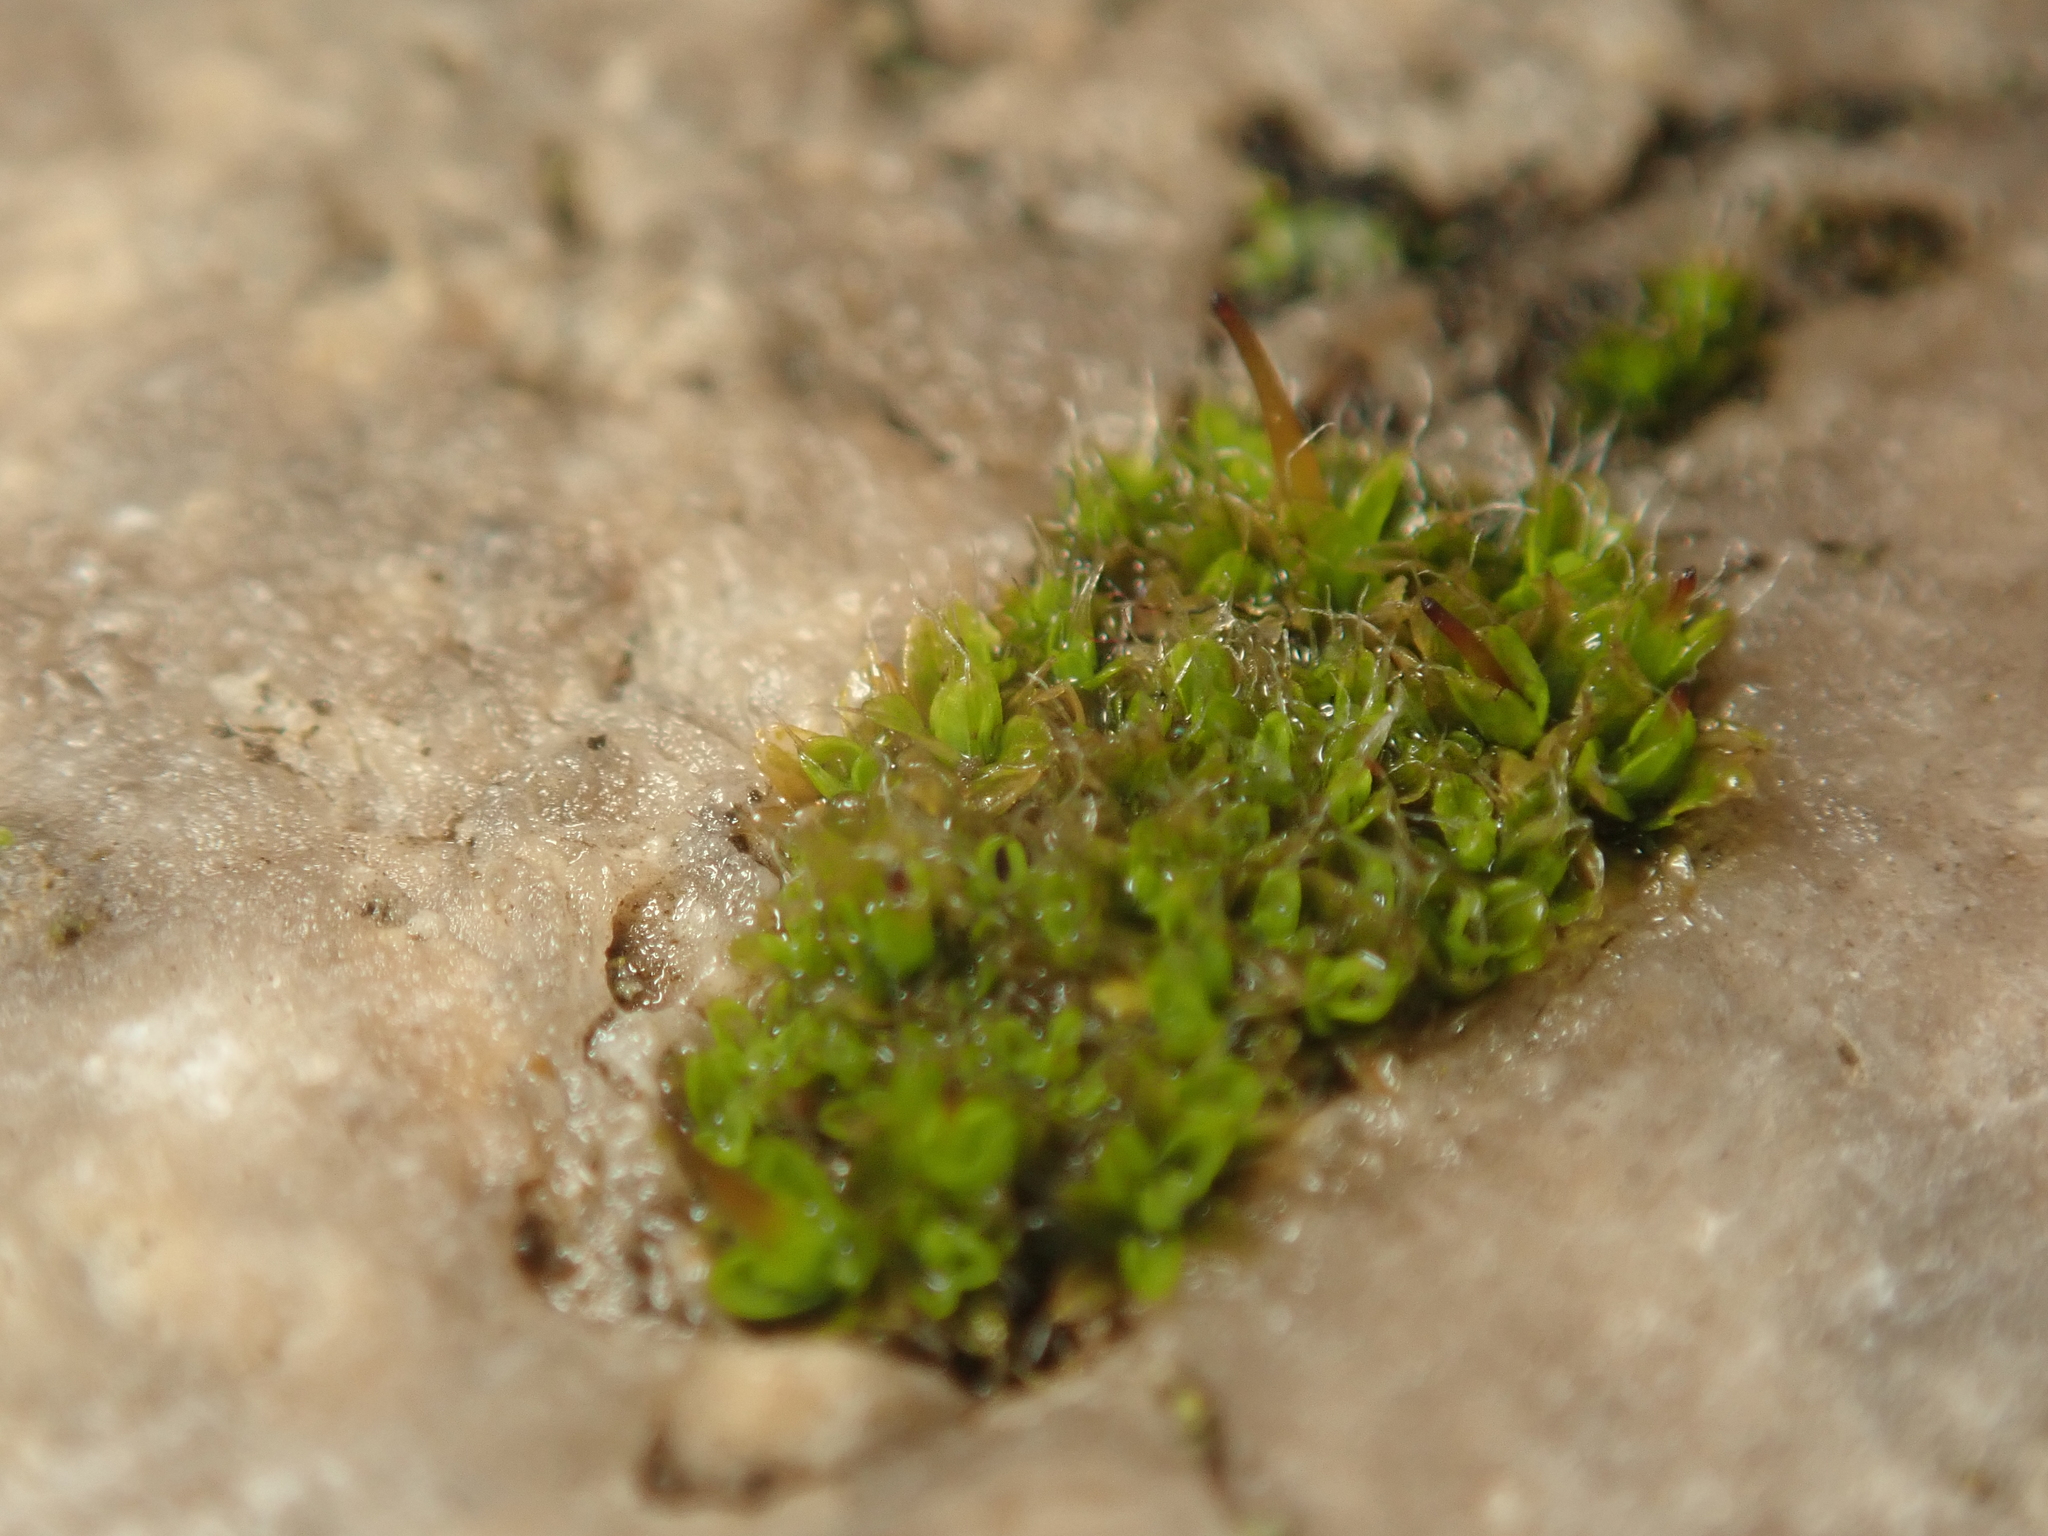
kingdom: Plantae
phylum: Bryophyta
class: Bryopsida
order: Pottiales
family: Pottiaceae
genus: Tortula
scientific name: Tortula muralis
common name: Wall screw-moss
